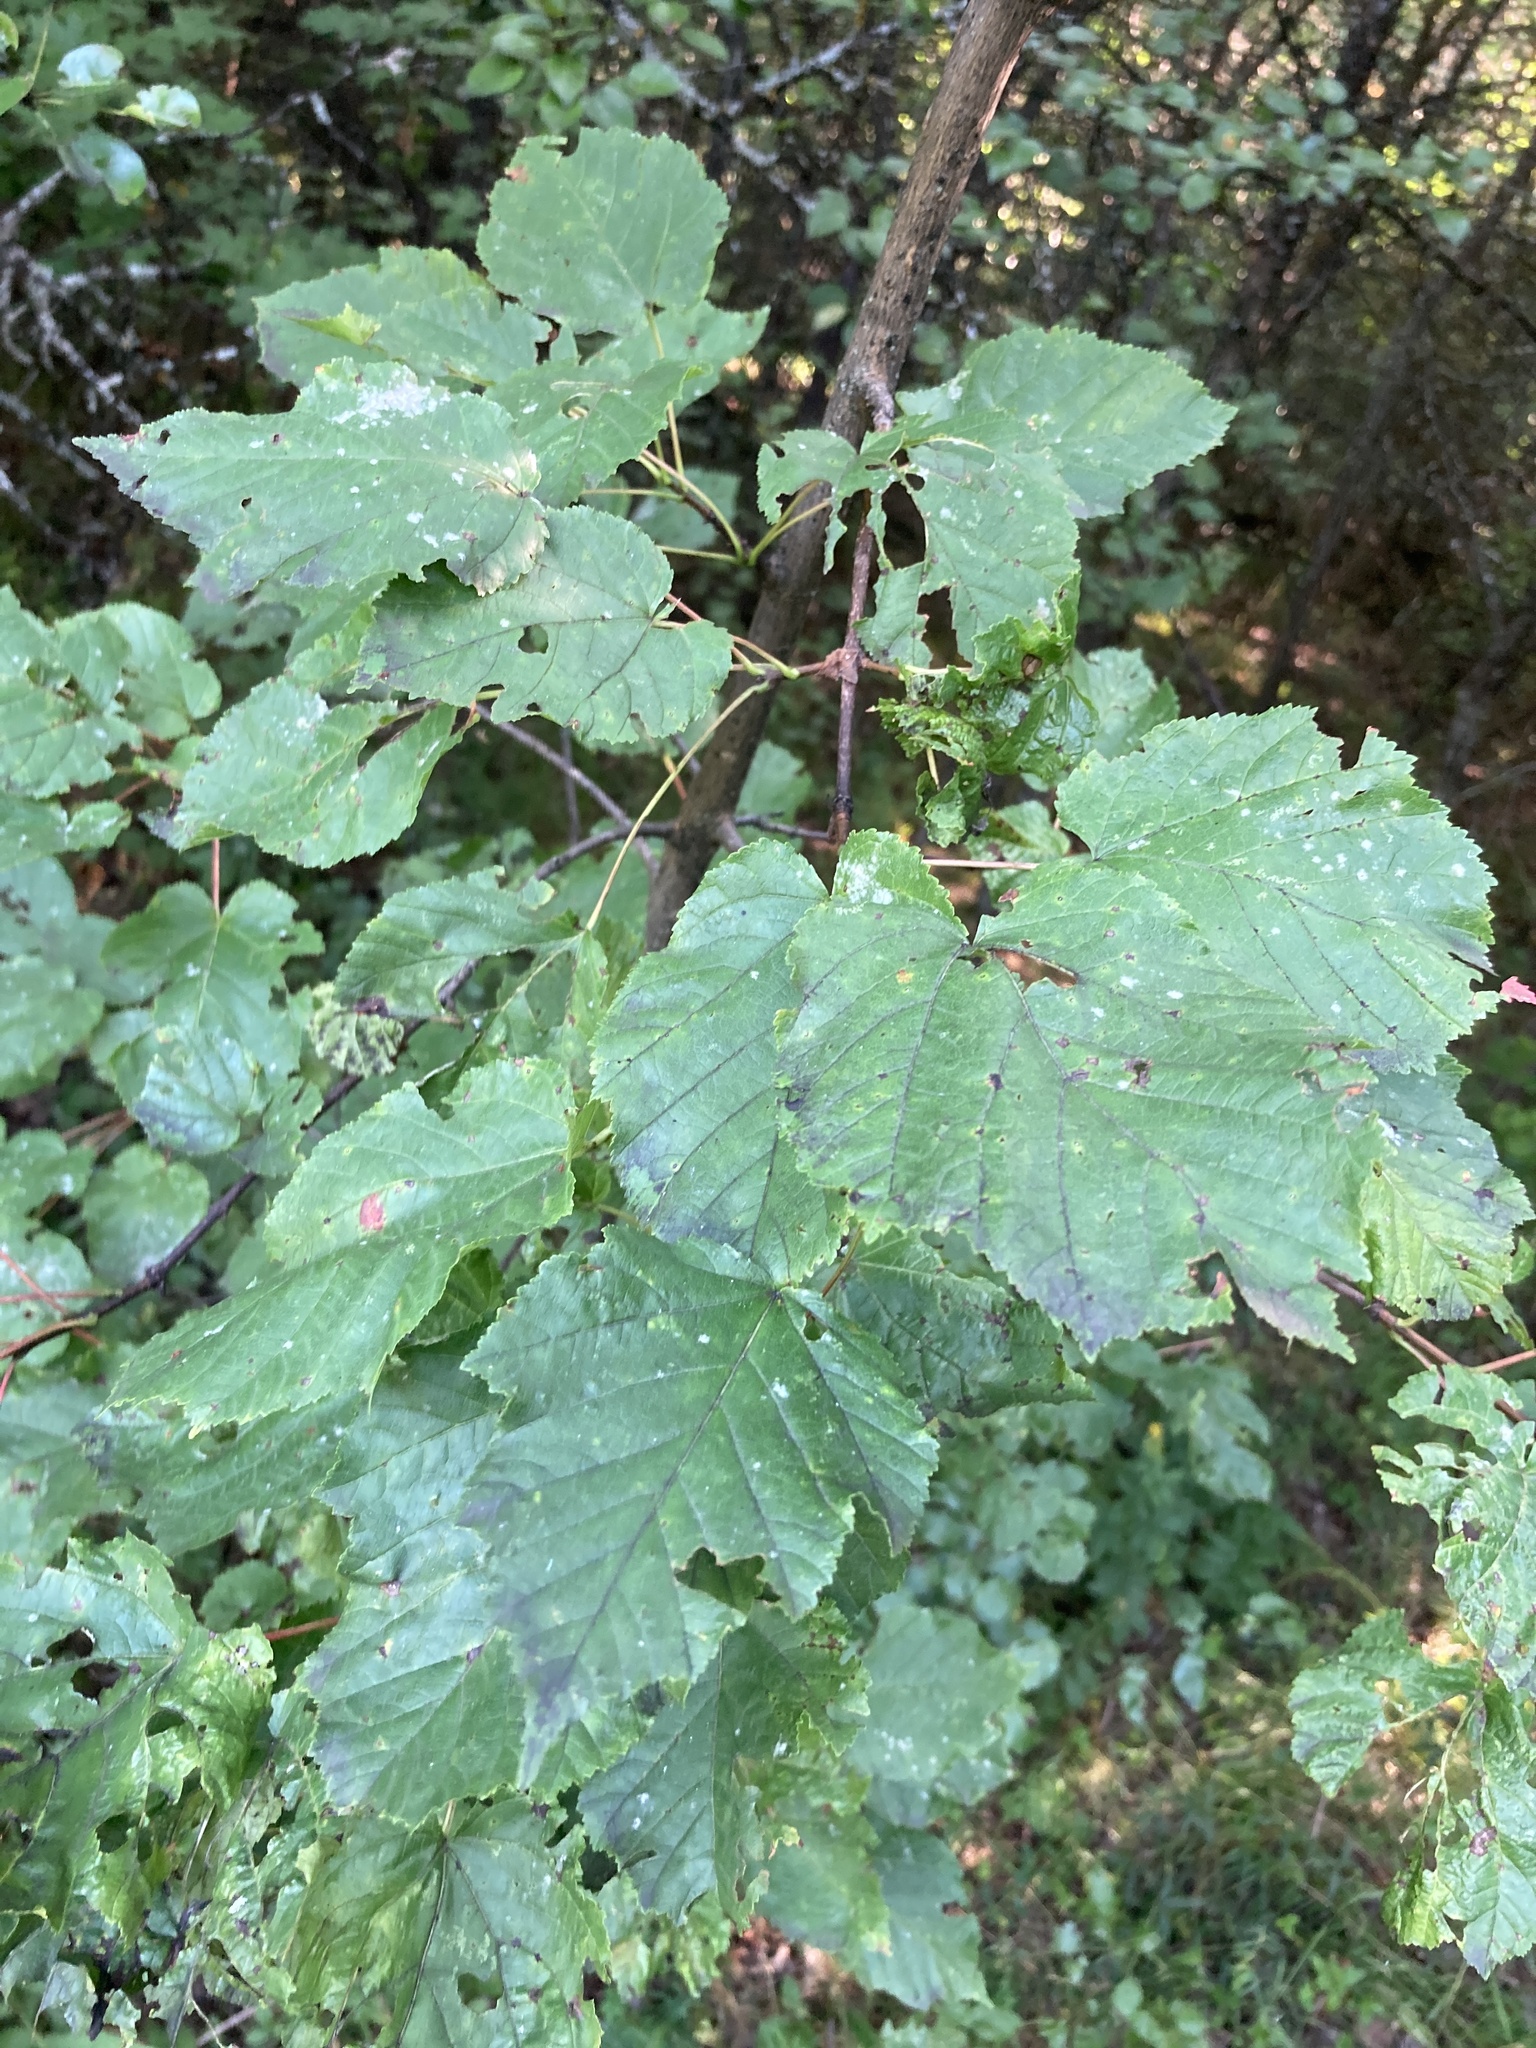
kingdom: Plantae
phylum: Tracheophyta
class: Magnoliopsida
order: Sapindales
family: Sapindaceae
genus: Acer
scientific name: Acer tataricum
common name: Tartar maple
